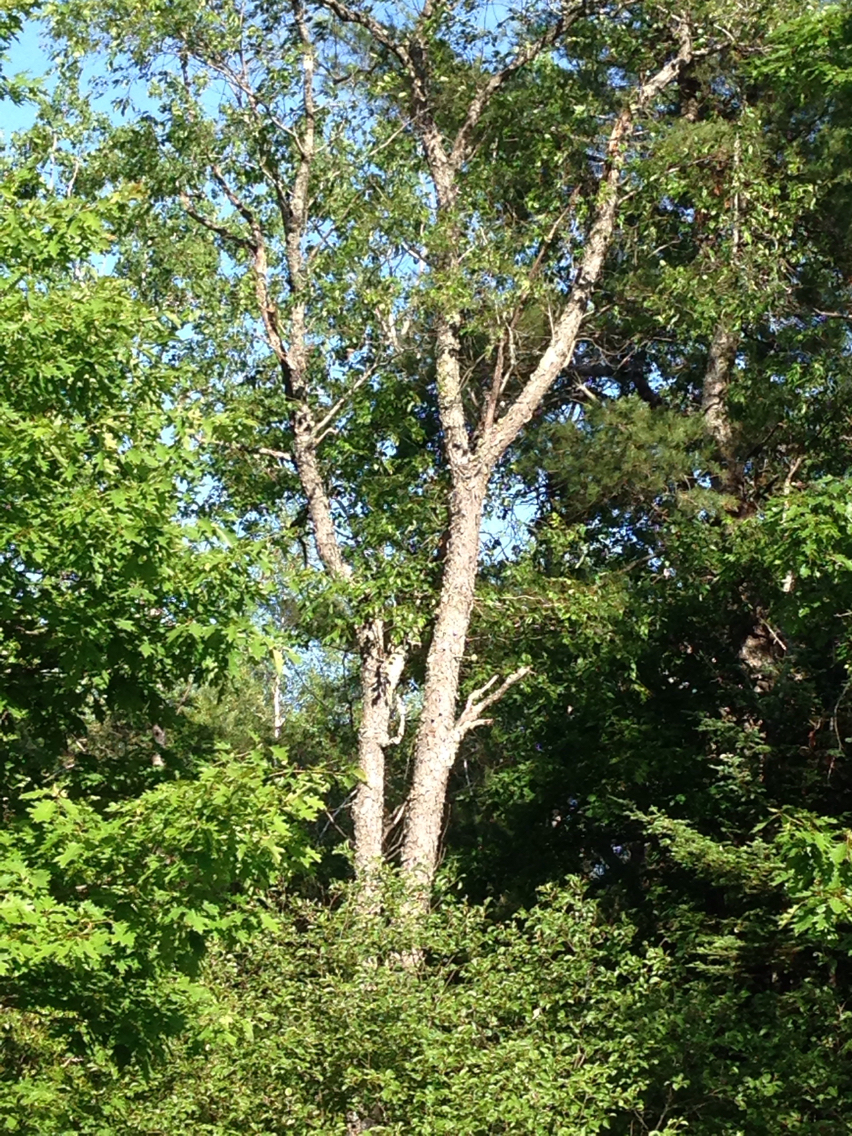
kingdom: Plantae
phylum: Tracheophyta
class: Magnoliopsida
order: Rosales
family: Rosaceae
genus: Prunus
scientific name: Prunus serotina
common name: Black cherry
